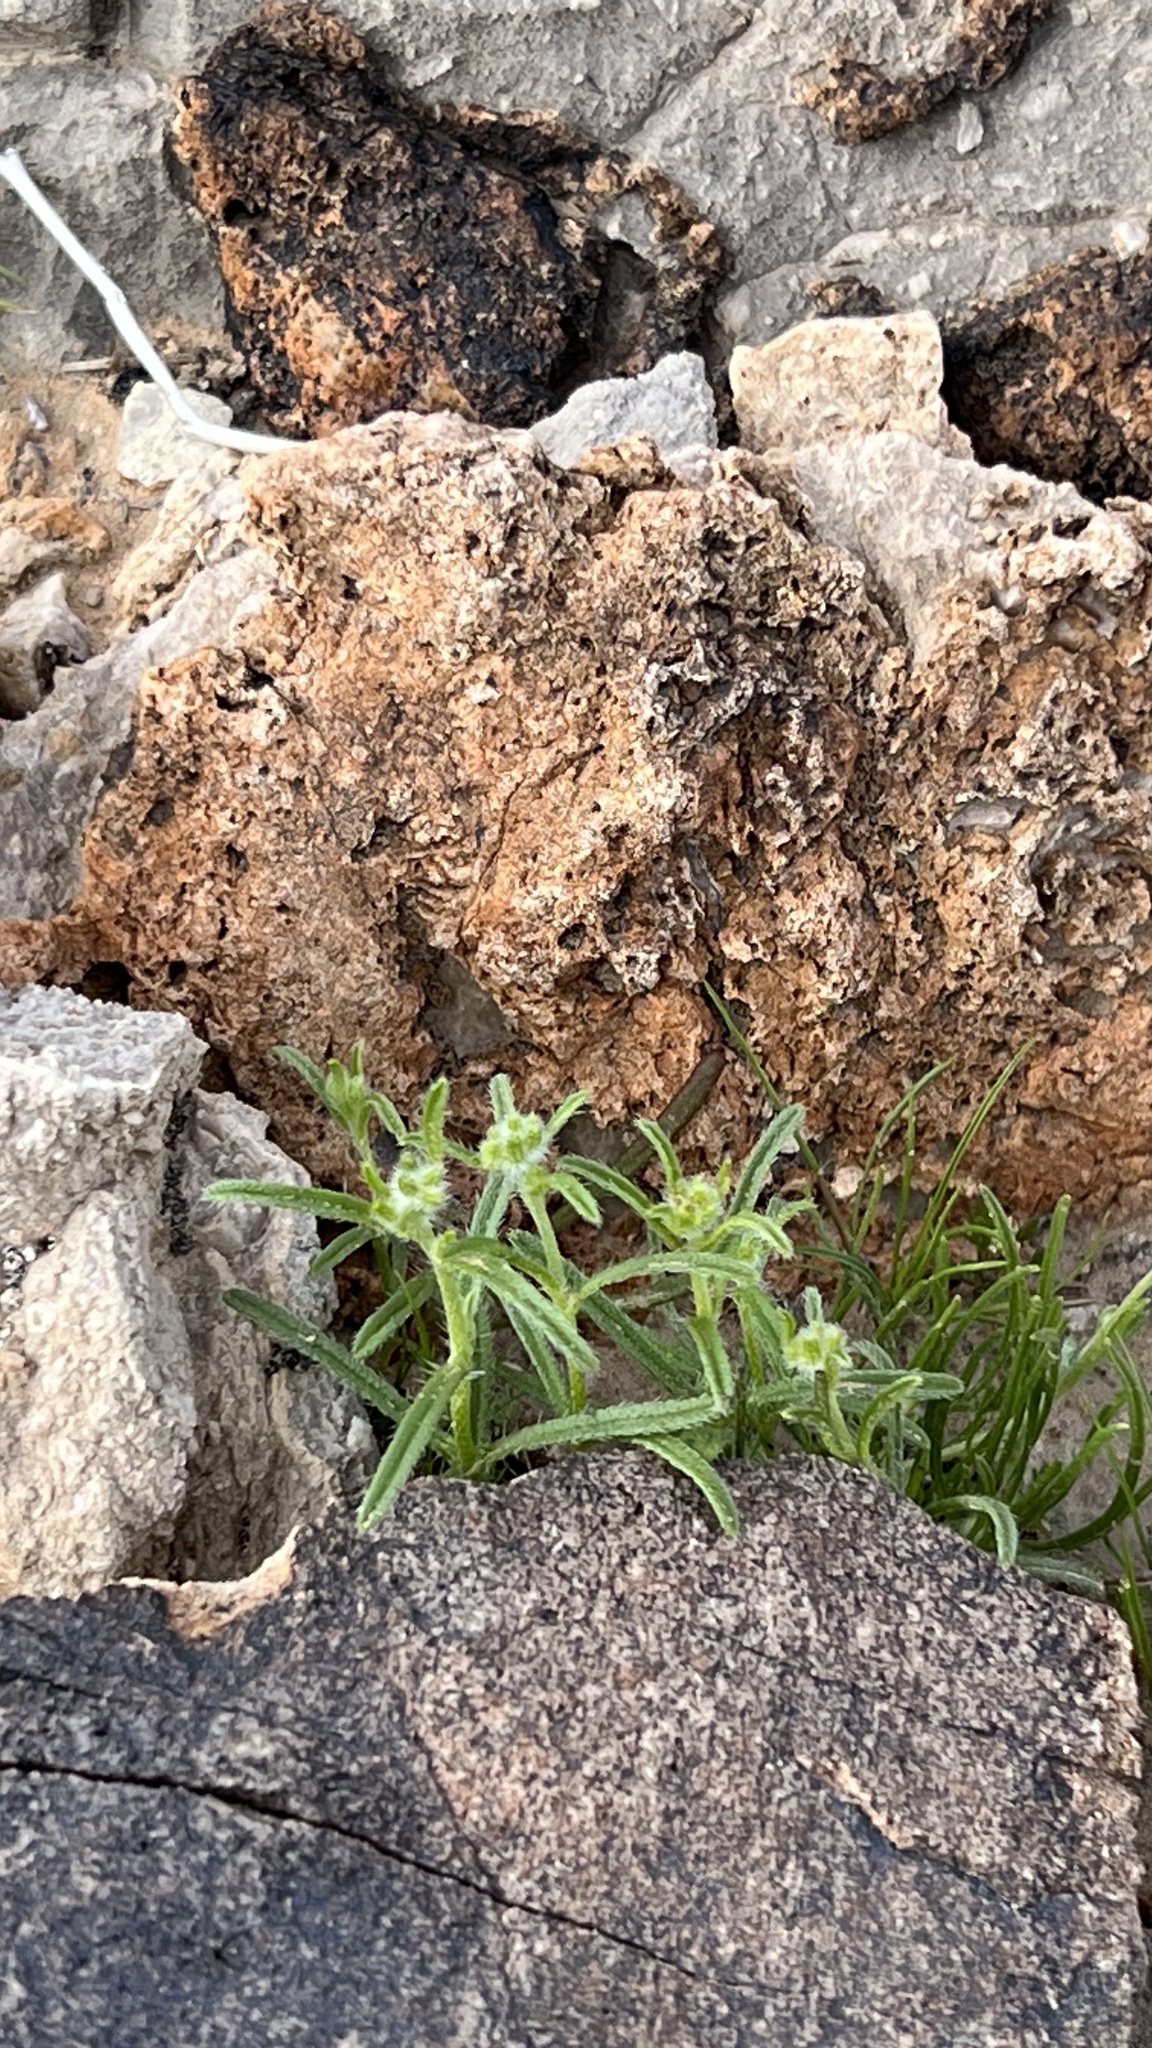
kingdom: Plantae
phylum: Tracheophyta
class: Magnoliopsida
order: Boraginales
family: Boraginaceae
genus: Cryptantha
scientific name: Cryptantha pterocarya
